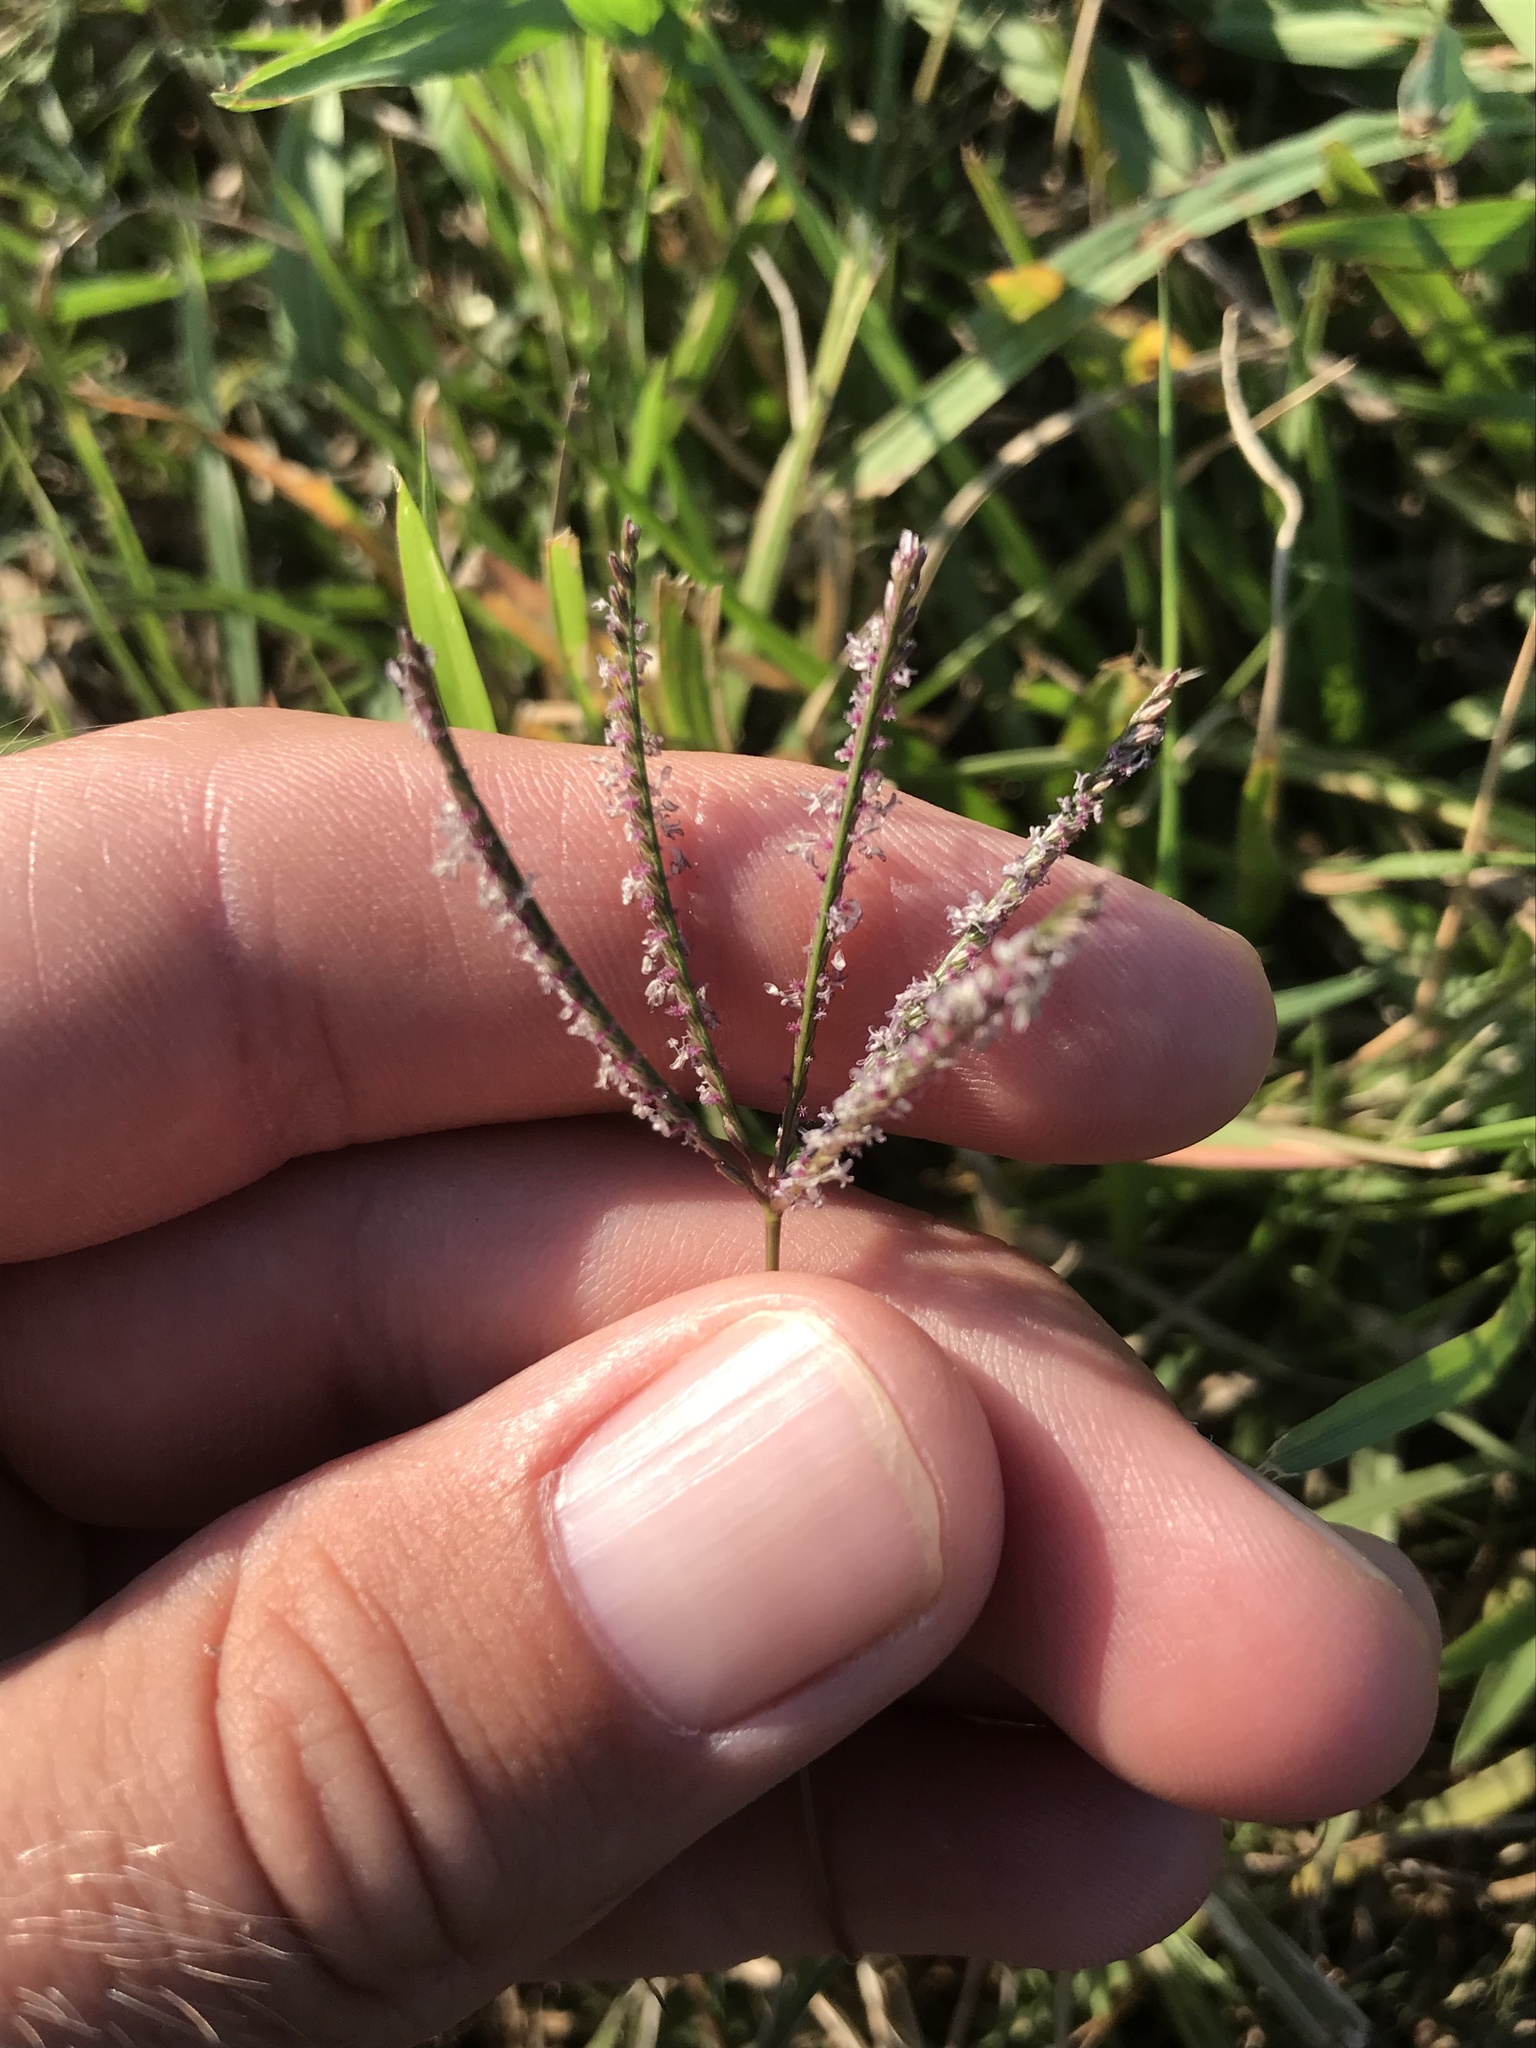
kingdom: Plantae
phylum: Tracheophyta
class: Liliopsida
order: Poales
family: Poaceae
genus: Cynodon
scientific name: Cynodon dactylon
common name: Bermuda grass
